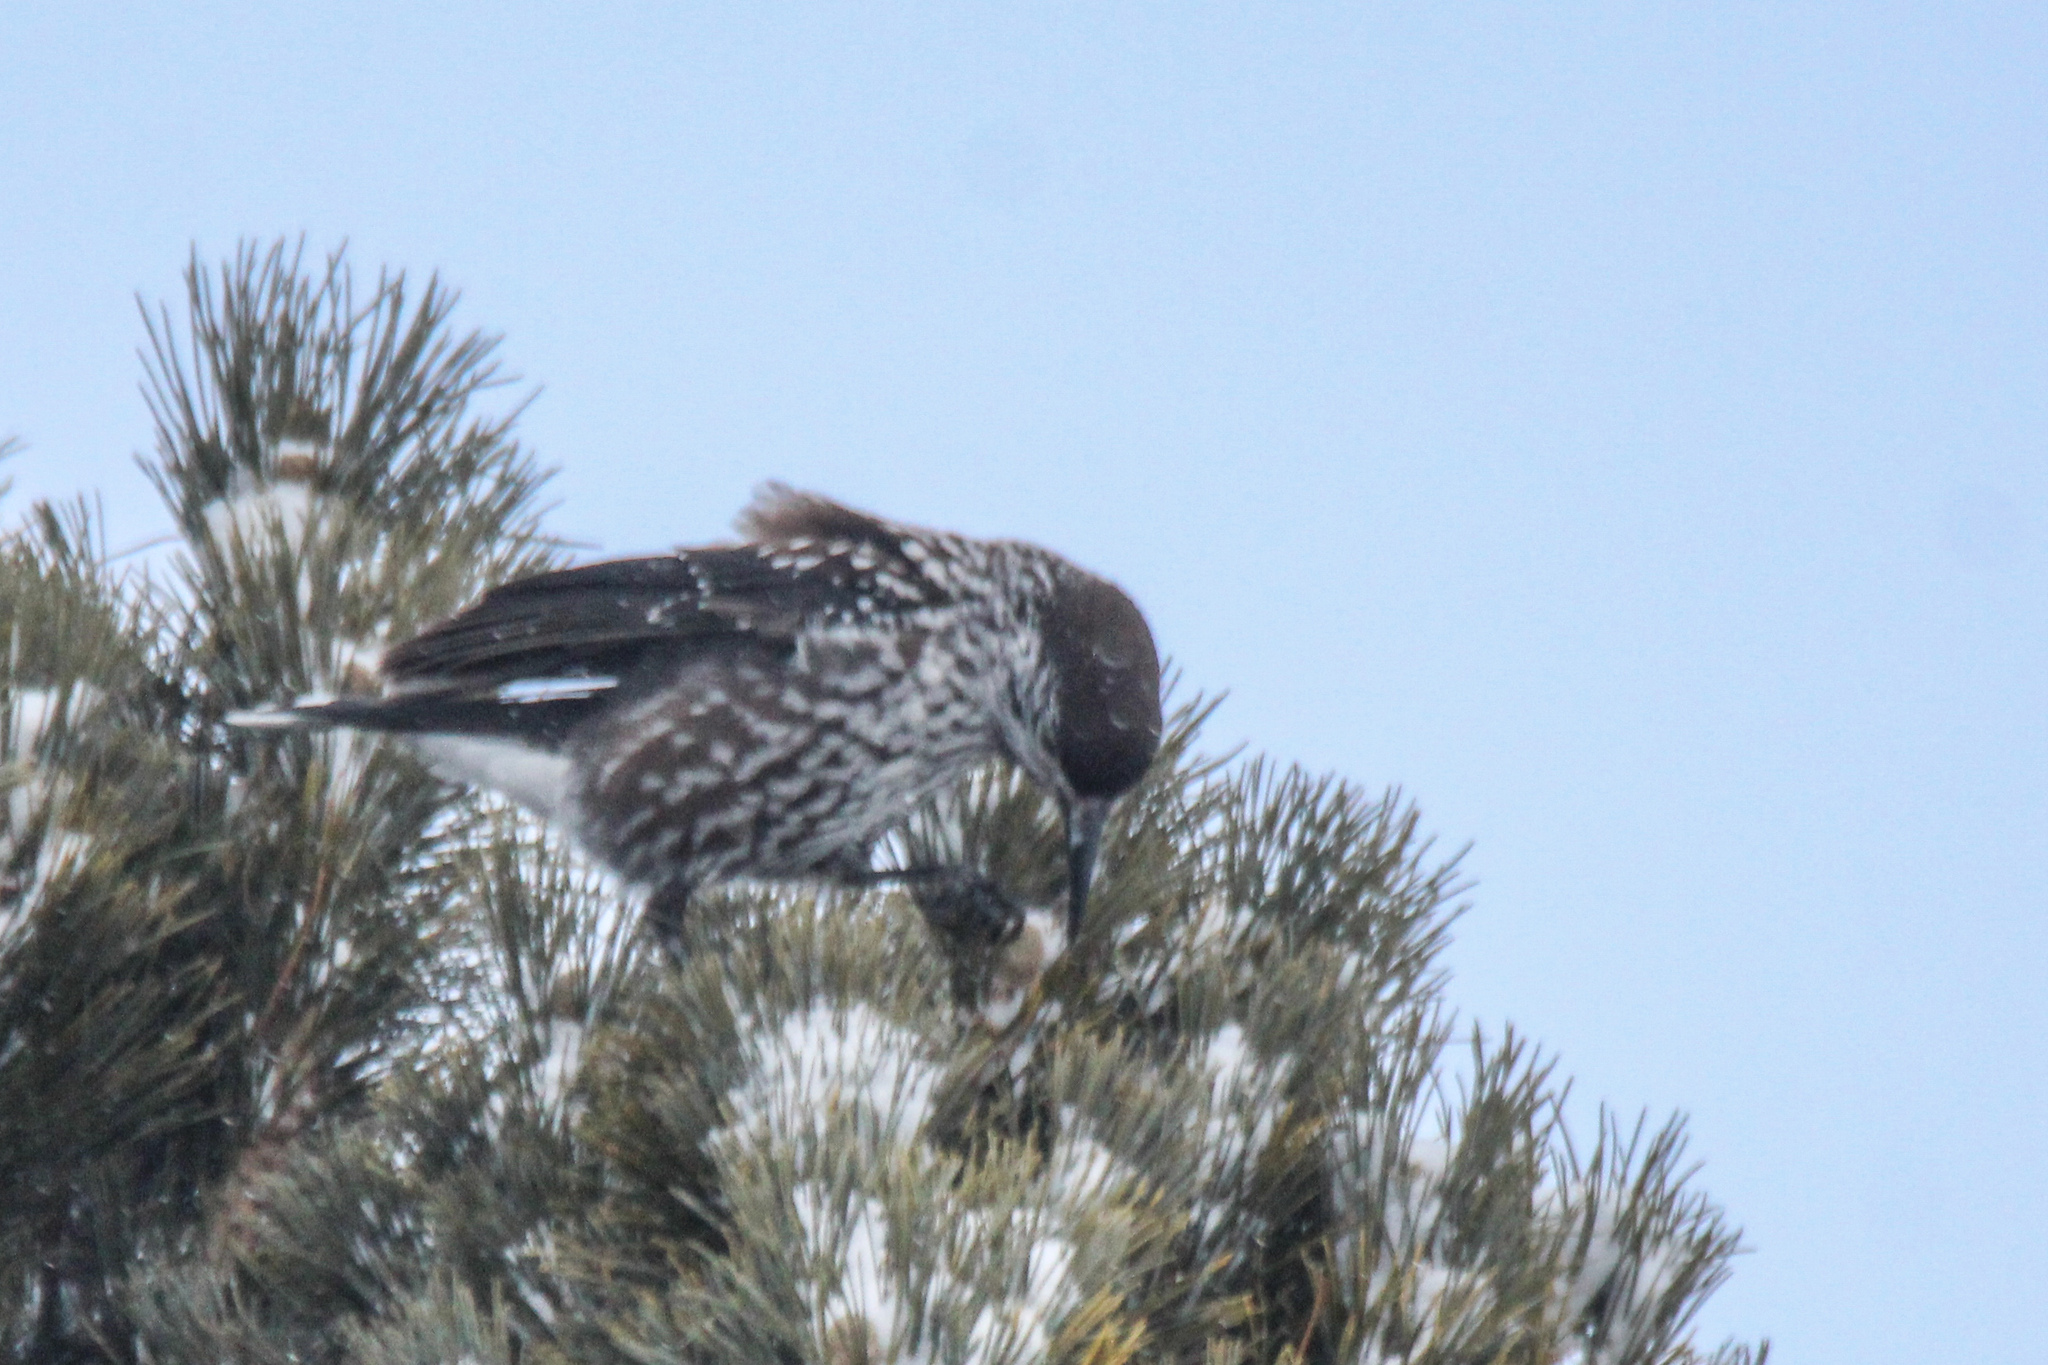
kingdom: Animalia
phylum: Chordata
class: Aves
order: Passeriformes
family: Corvidae
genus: Nucifraga
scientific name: Nucifraga caryocatactes
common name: Spotted nutcracker
